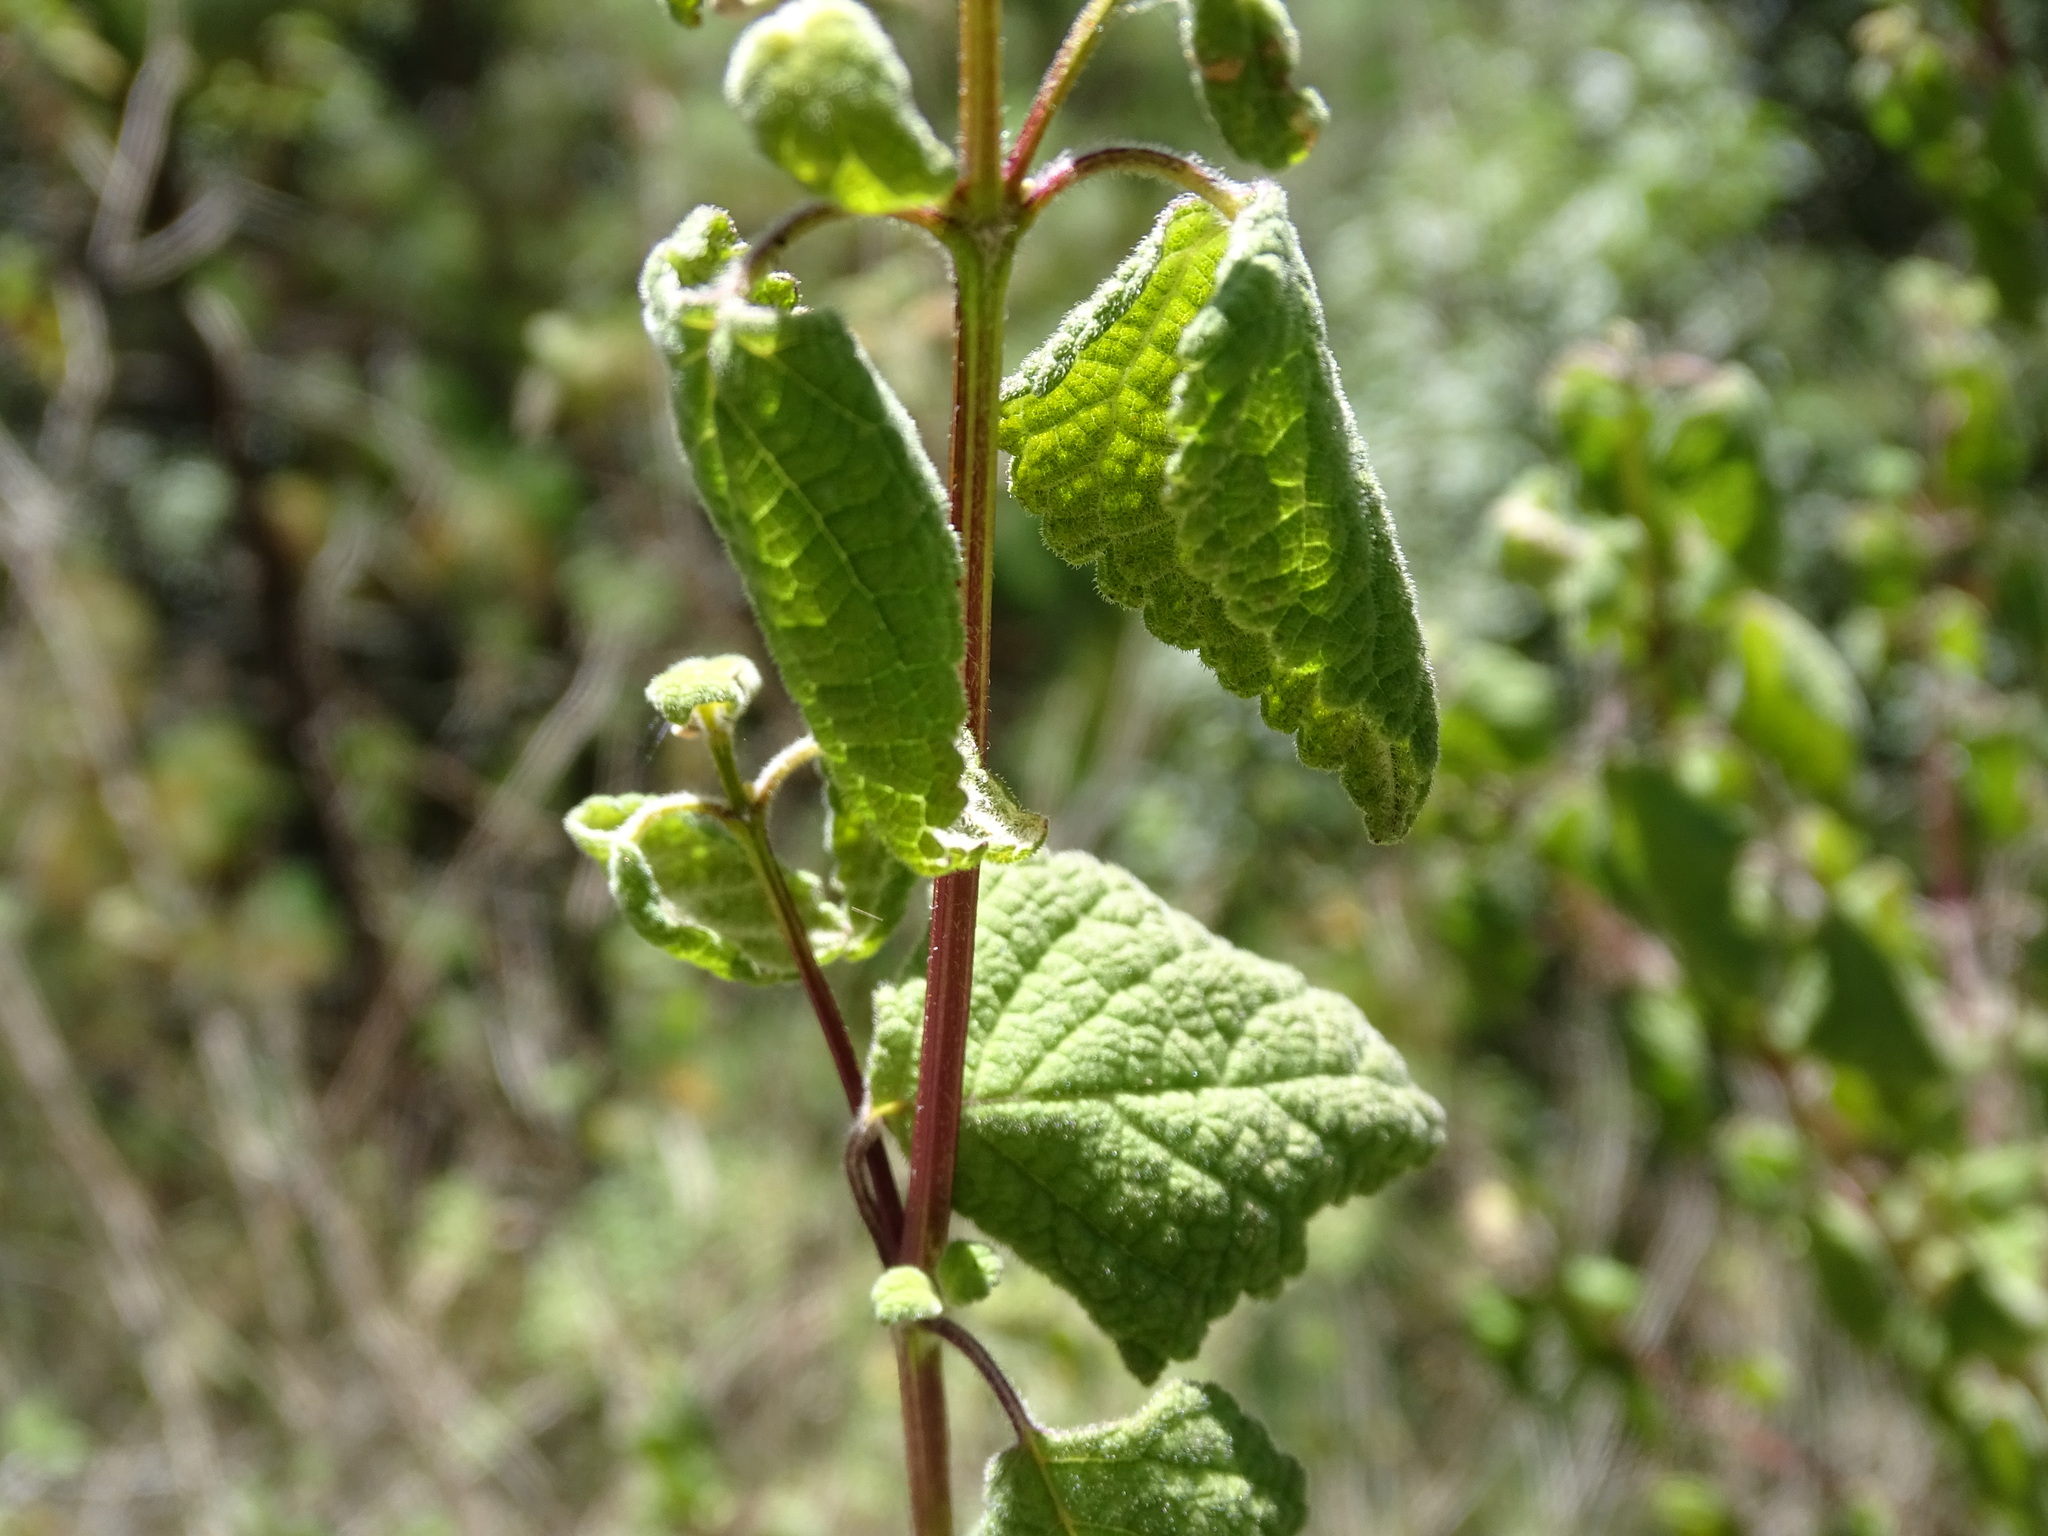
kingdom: Plantae
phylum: Tracheophyta
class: Magnoliopsida
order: Lamiales
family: Lamiaceae
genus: Salvia
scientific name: Salvia regla
